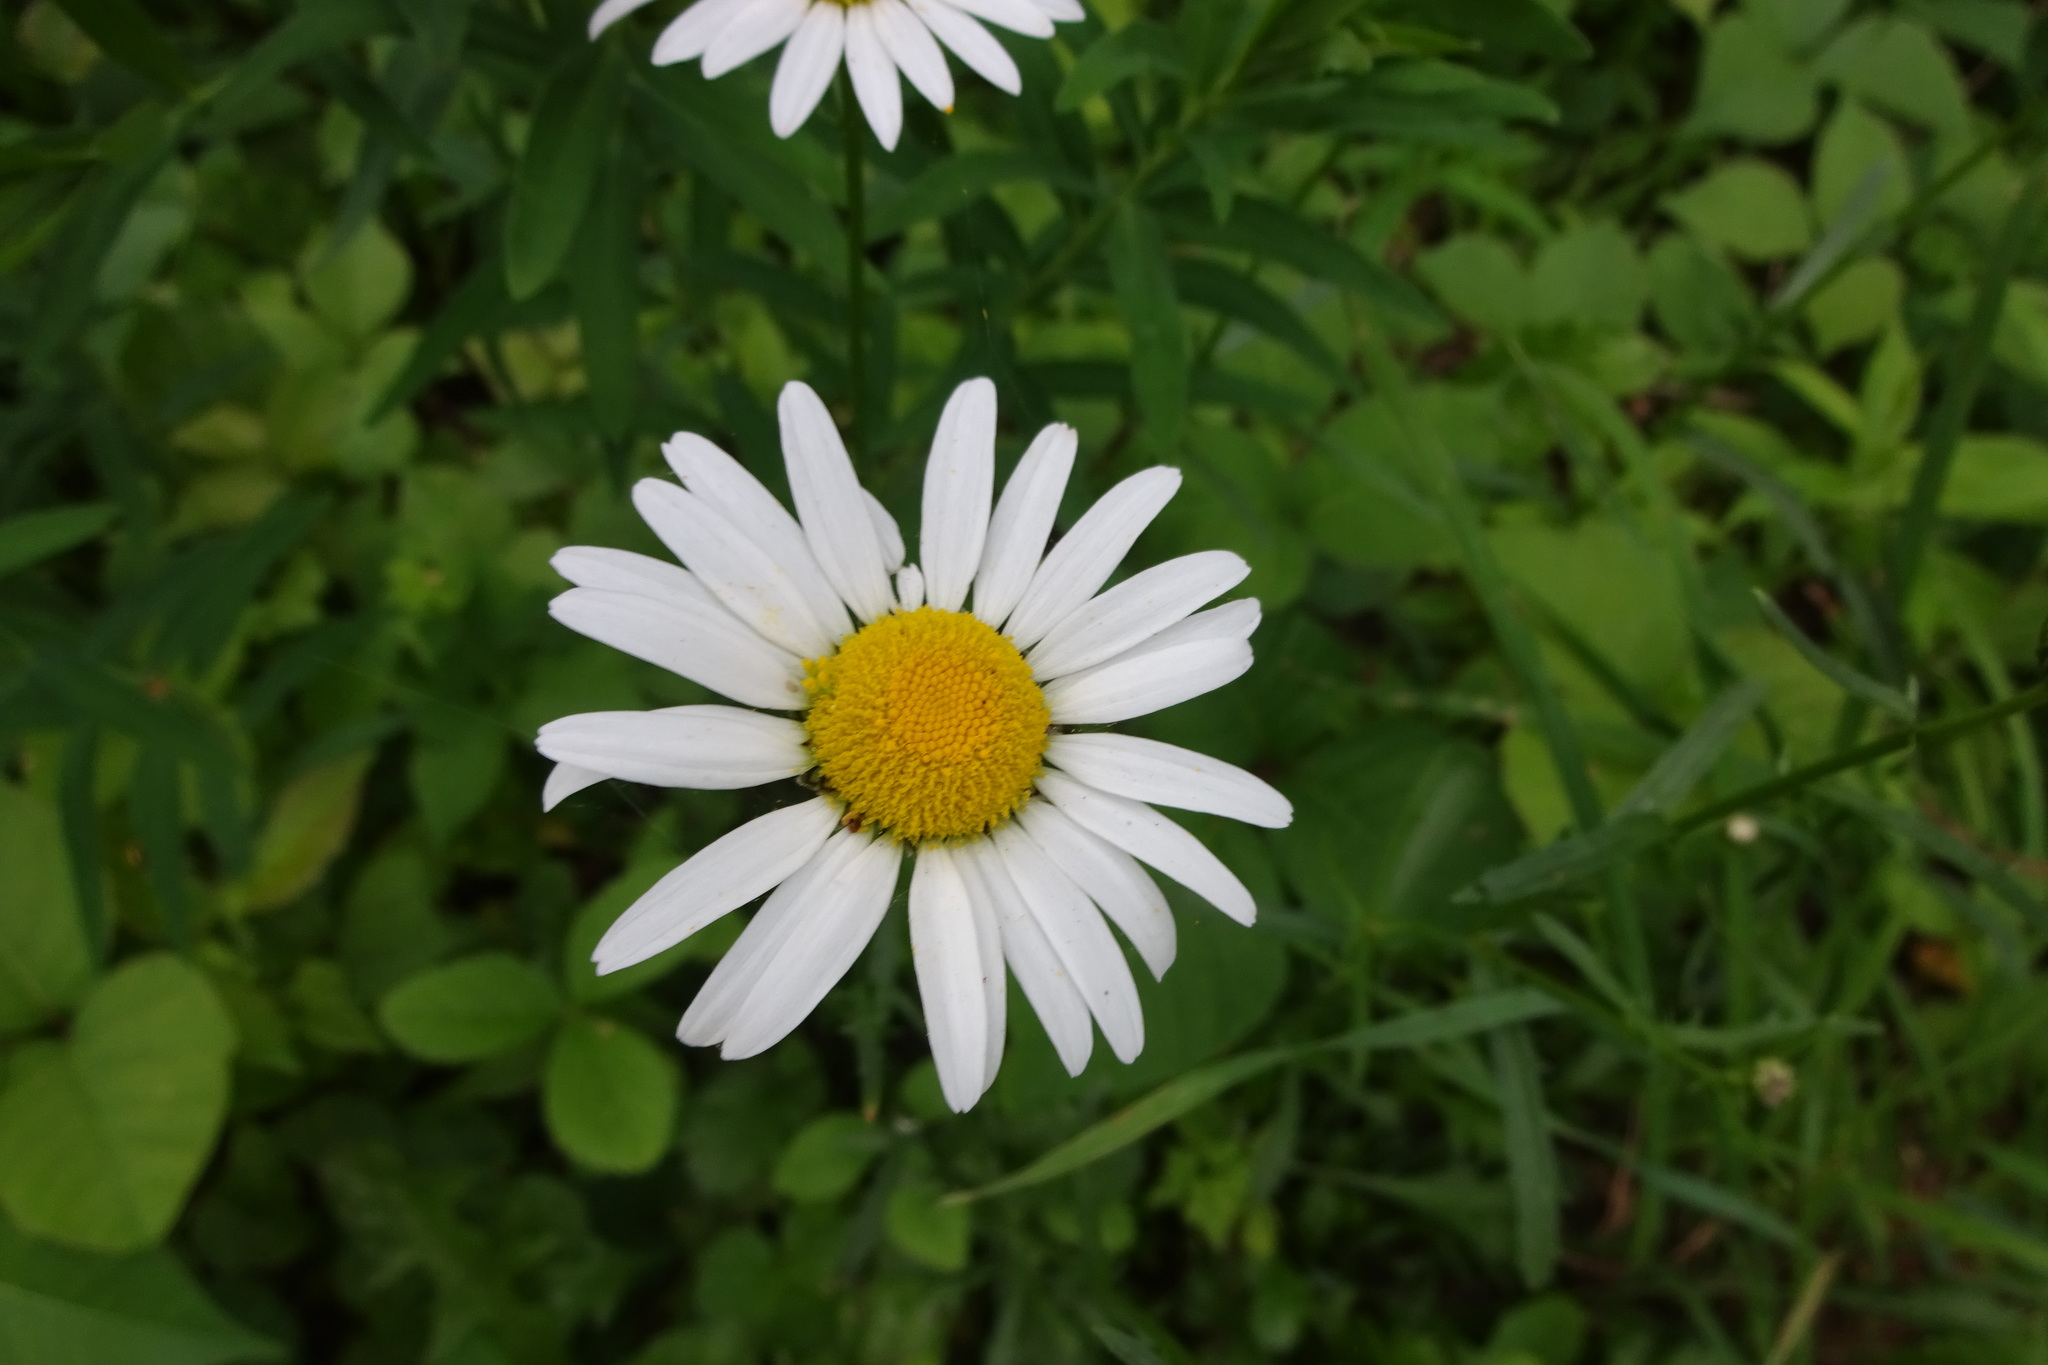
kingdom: Plantae
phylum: Tracheophyta
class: Magnoliopsida
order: Asterales
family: Asteraceae
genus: Leucanthemum
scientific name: Leucanthemum vulgare
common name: Oxeye daisy
